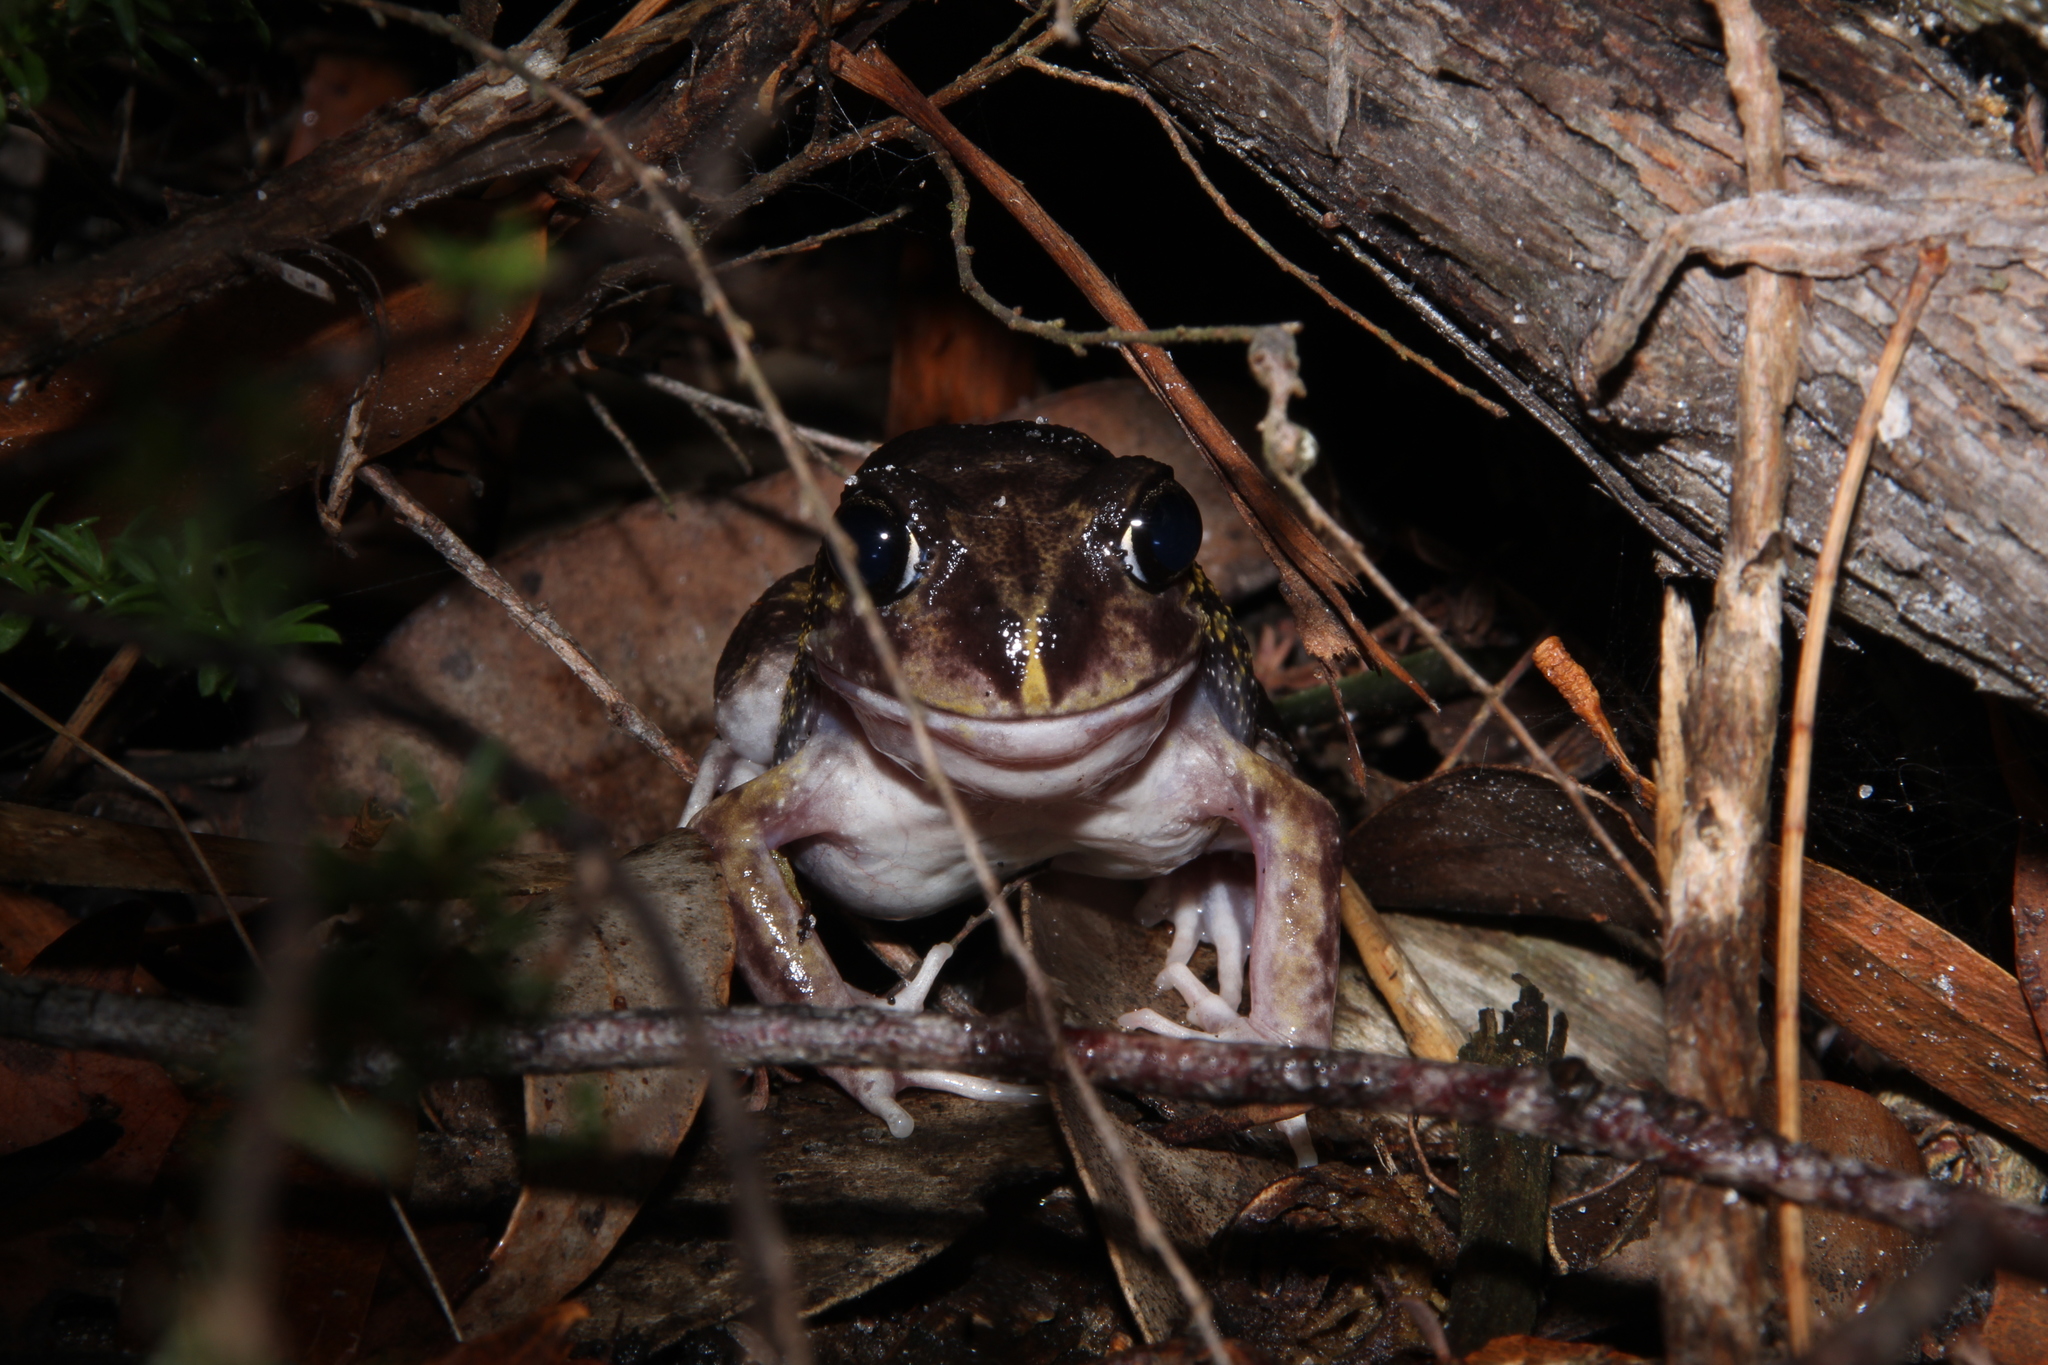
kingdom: Animalia
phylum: Chordata
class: Amphibia
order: Anura
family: Limnodynastidae
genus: Heleioporus
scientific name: Heleioporus eyrei
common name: Moaning frog
